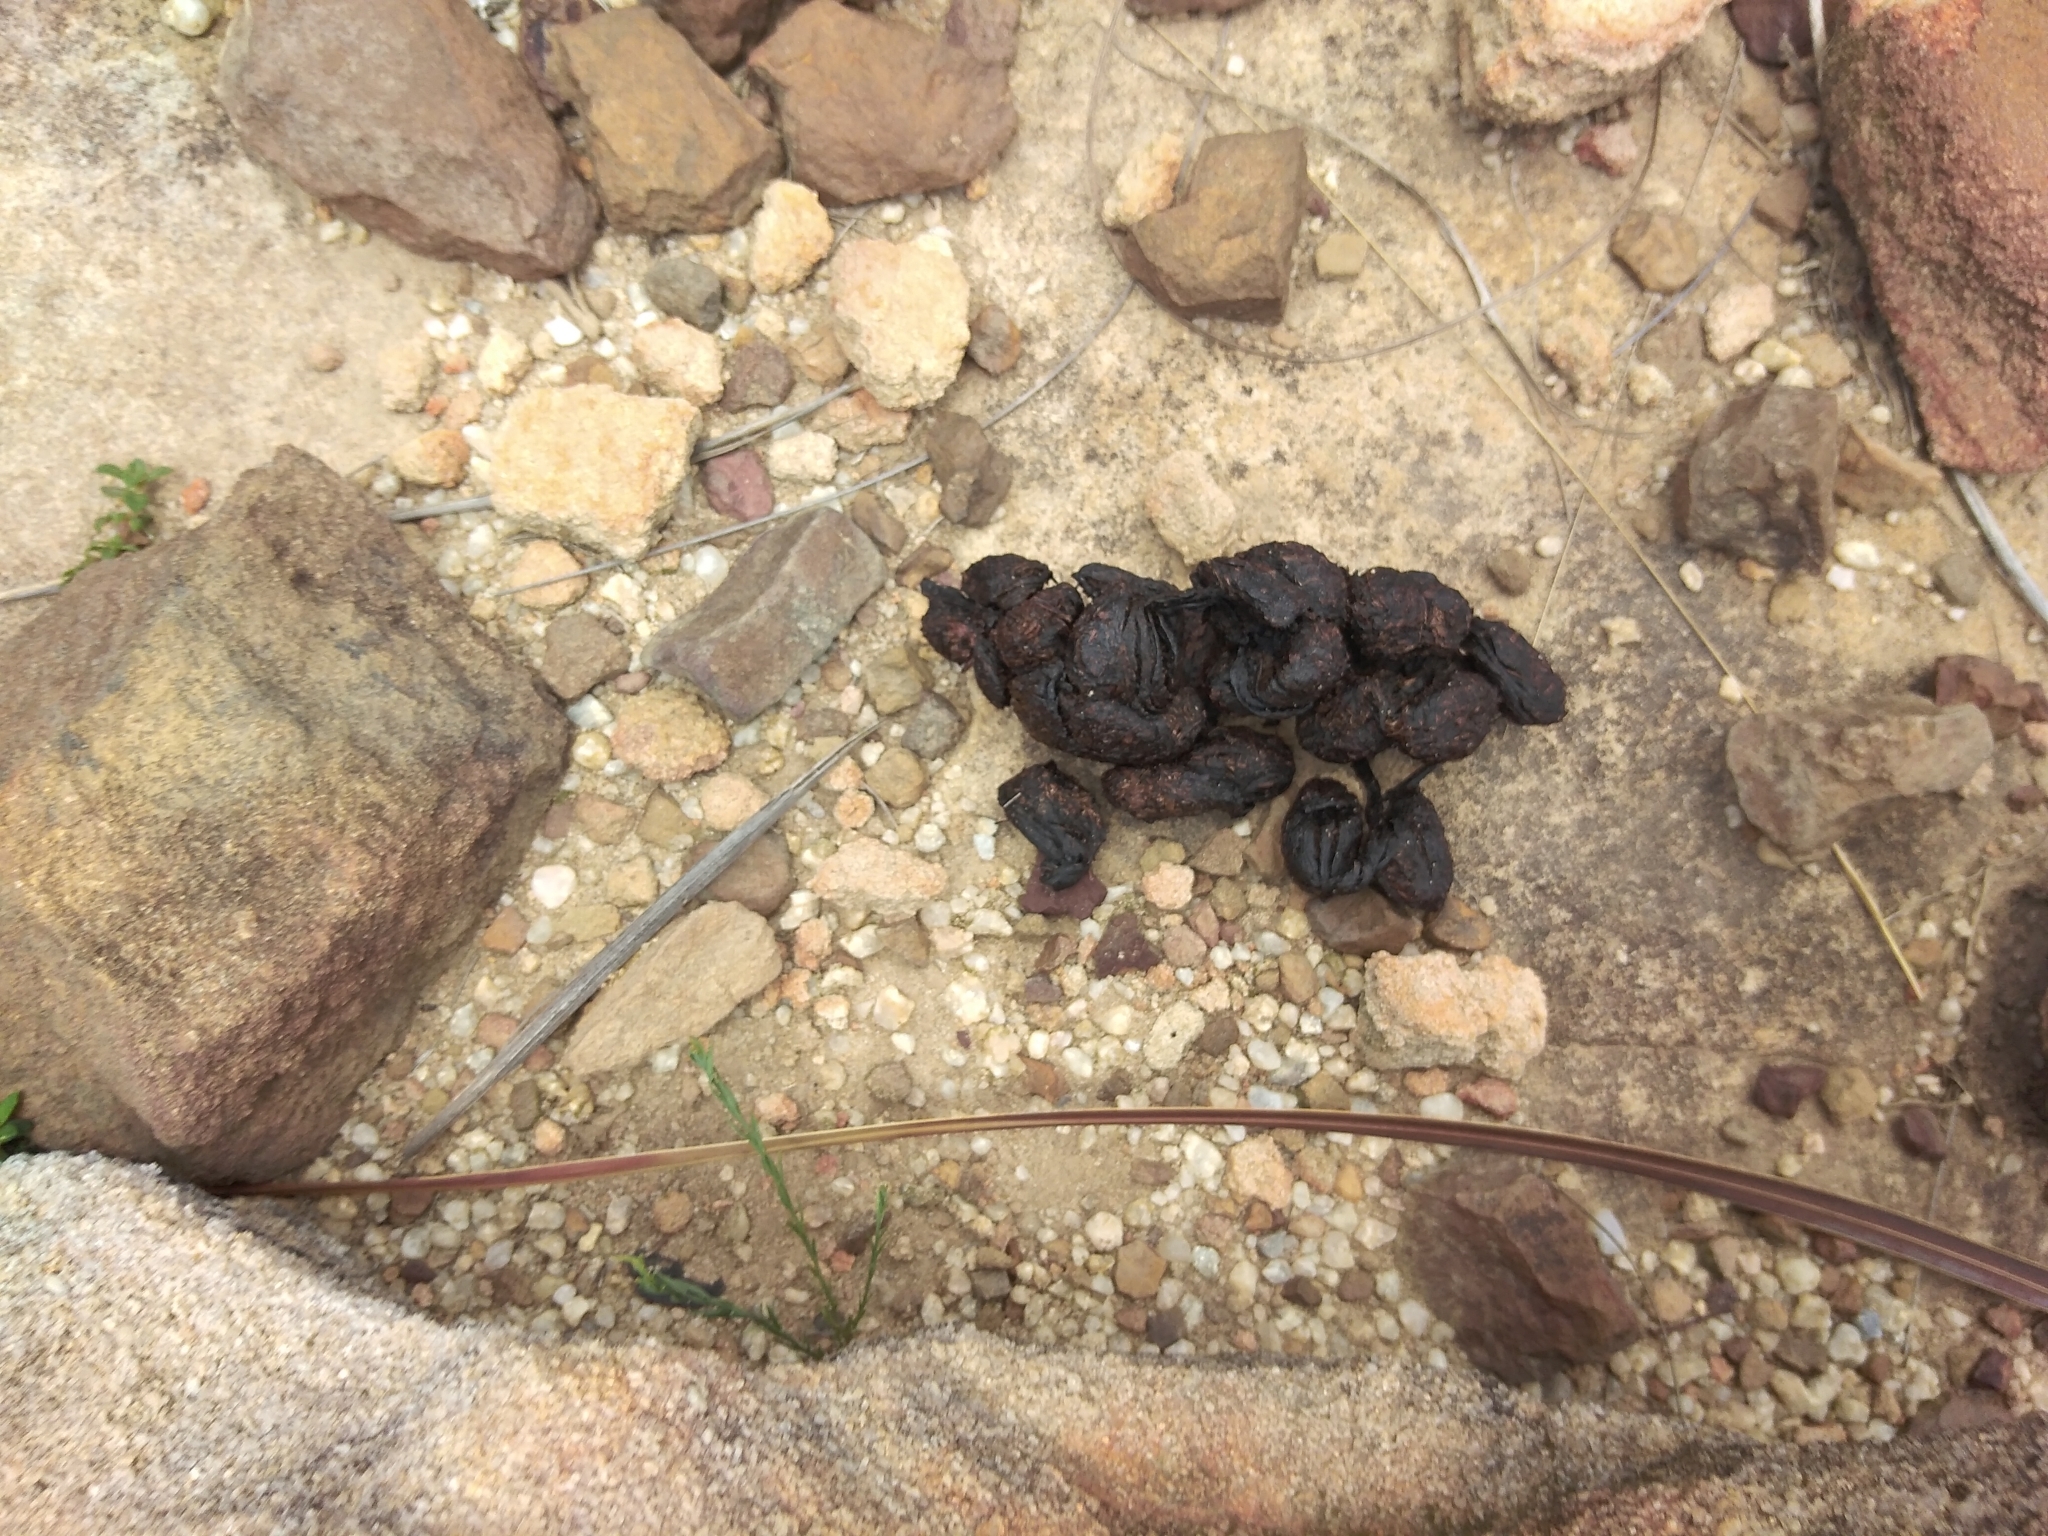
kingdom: Animalia
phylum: Chordata
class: Mammalia
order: Rodentia
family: Hystricidae
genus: Hystrix
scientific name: Hystrix africaeaustralis
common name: Cape porcupine
